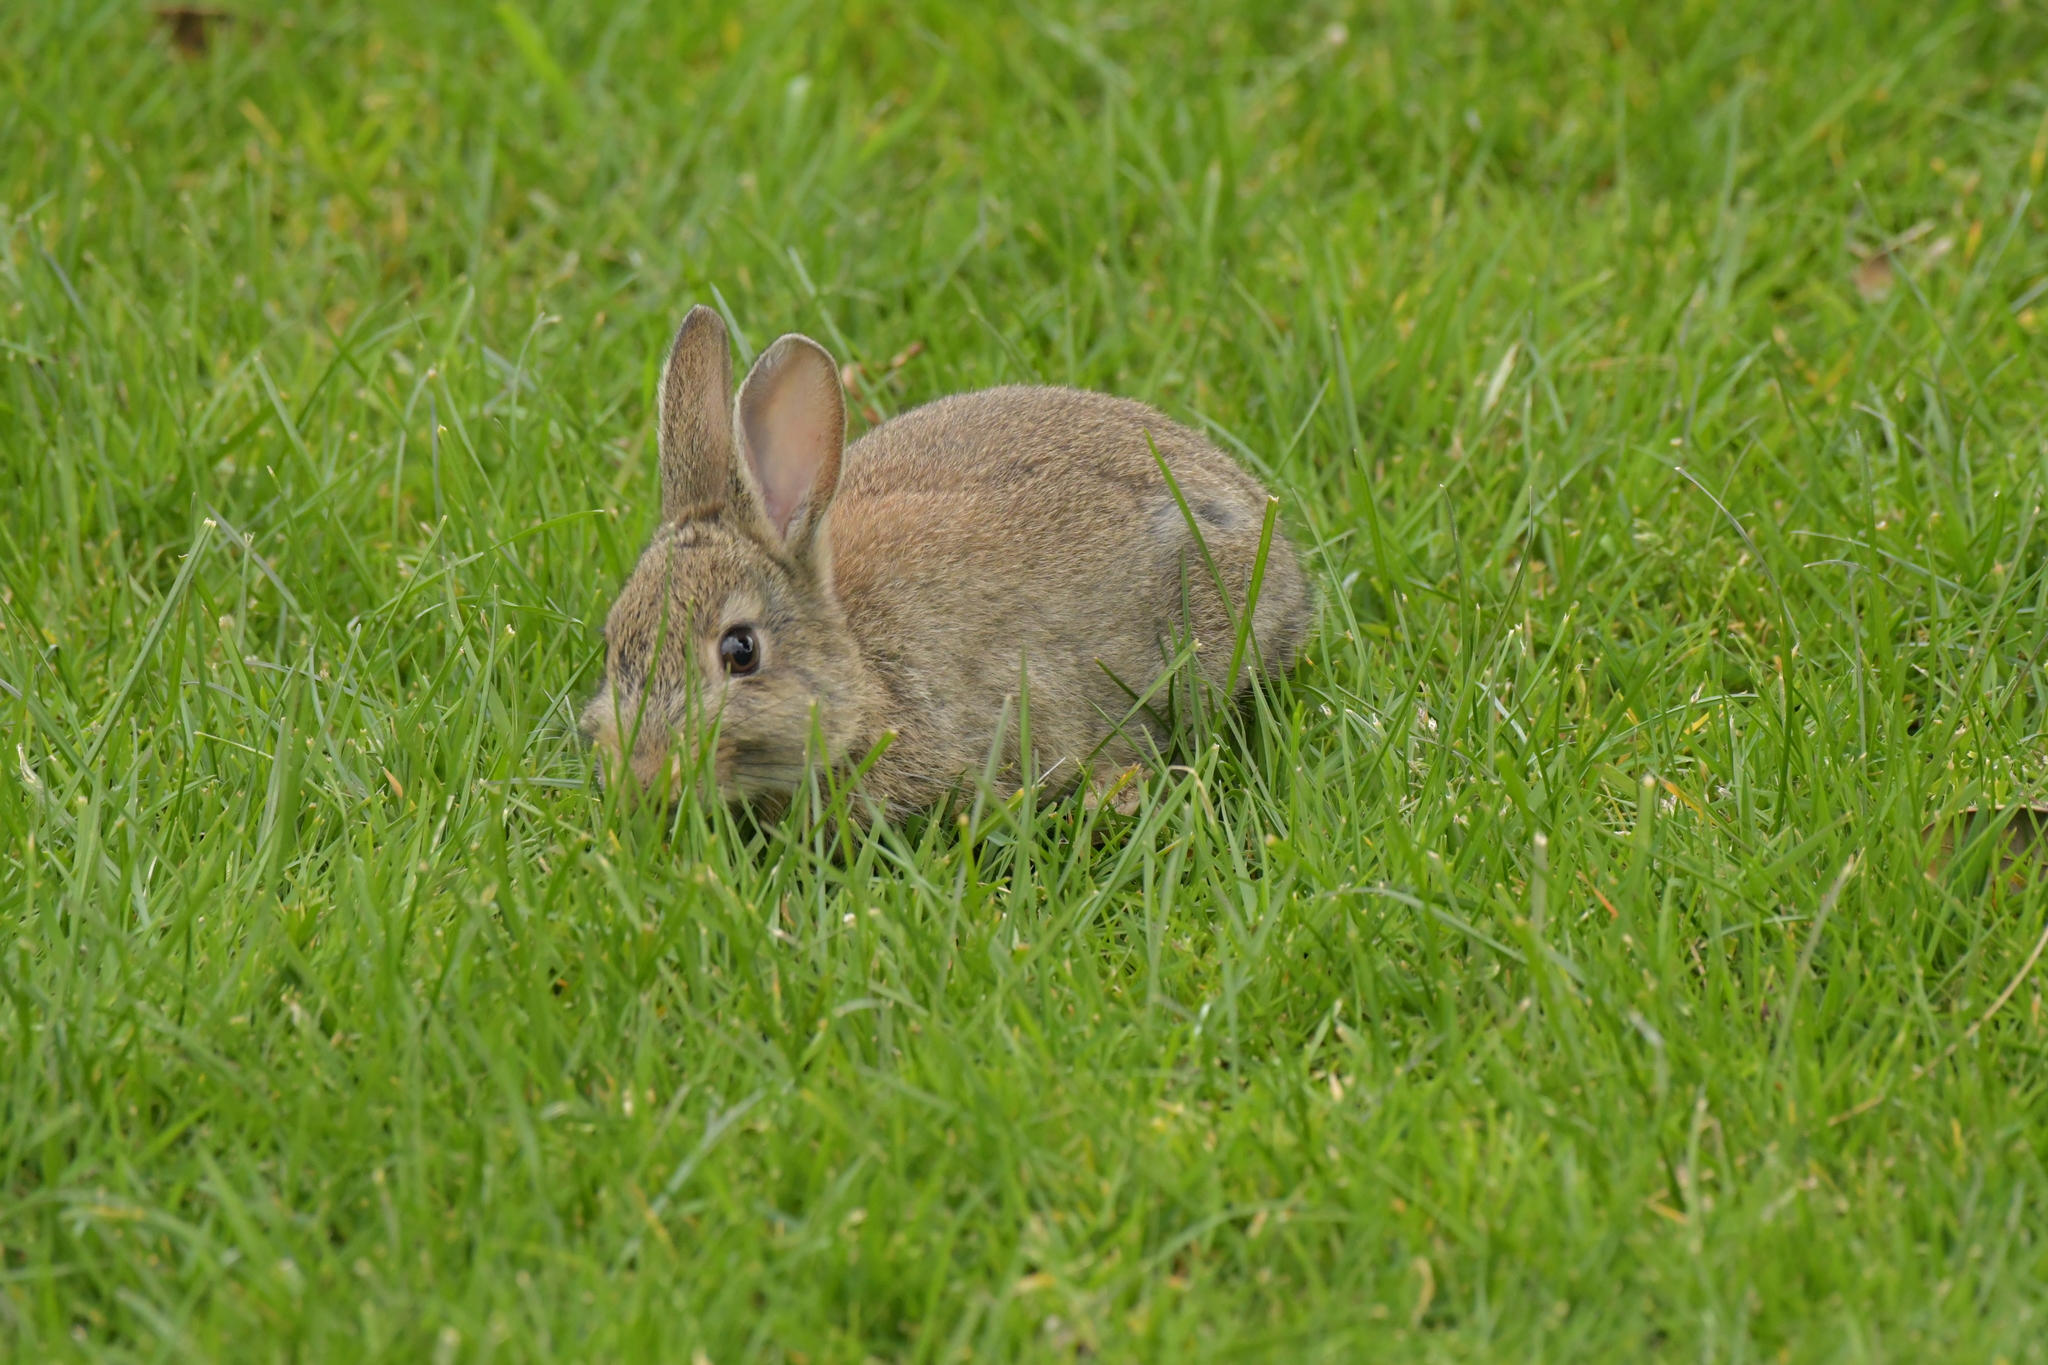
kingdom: Animalia
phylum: Chordata
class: Mammalia
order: Lagomorpha
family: Leporidae
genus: Oryctolagus
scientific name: Oryctolagus cuniculus
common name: European rabbit
